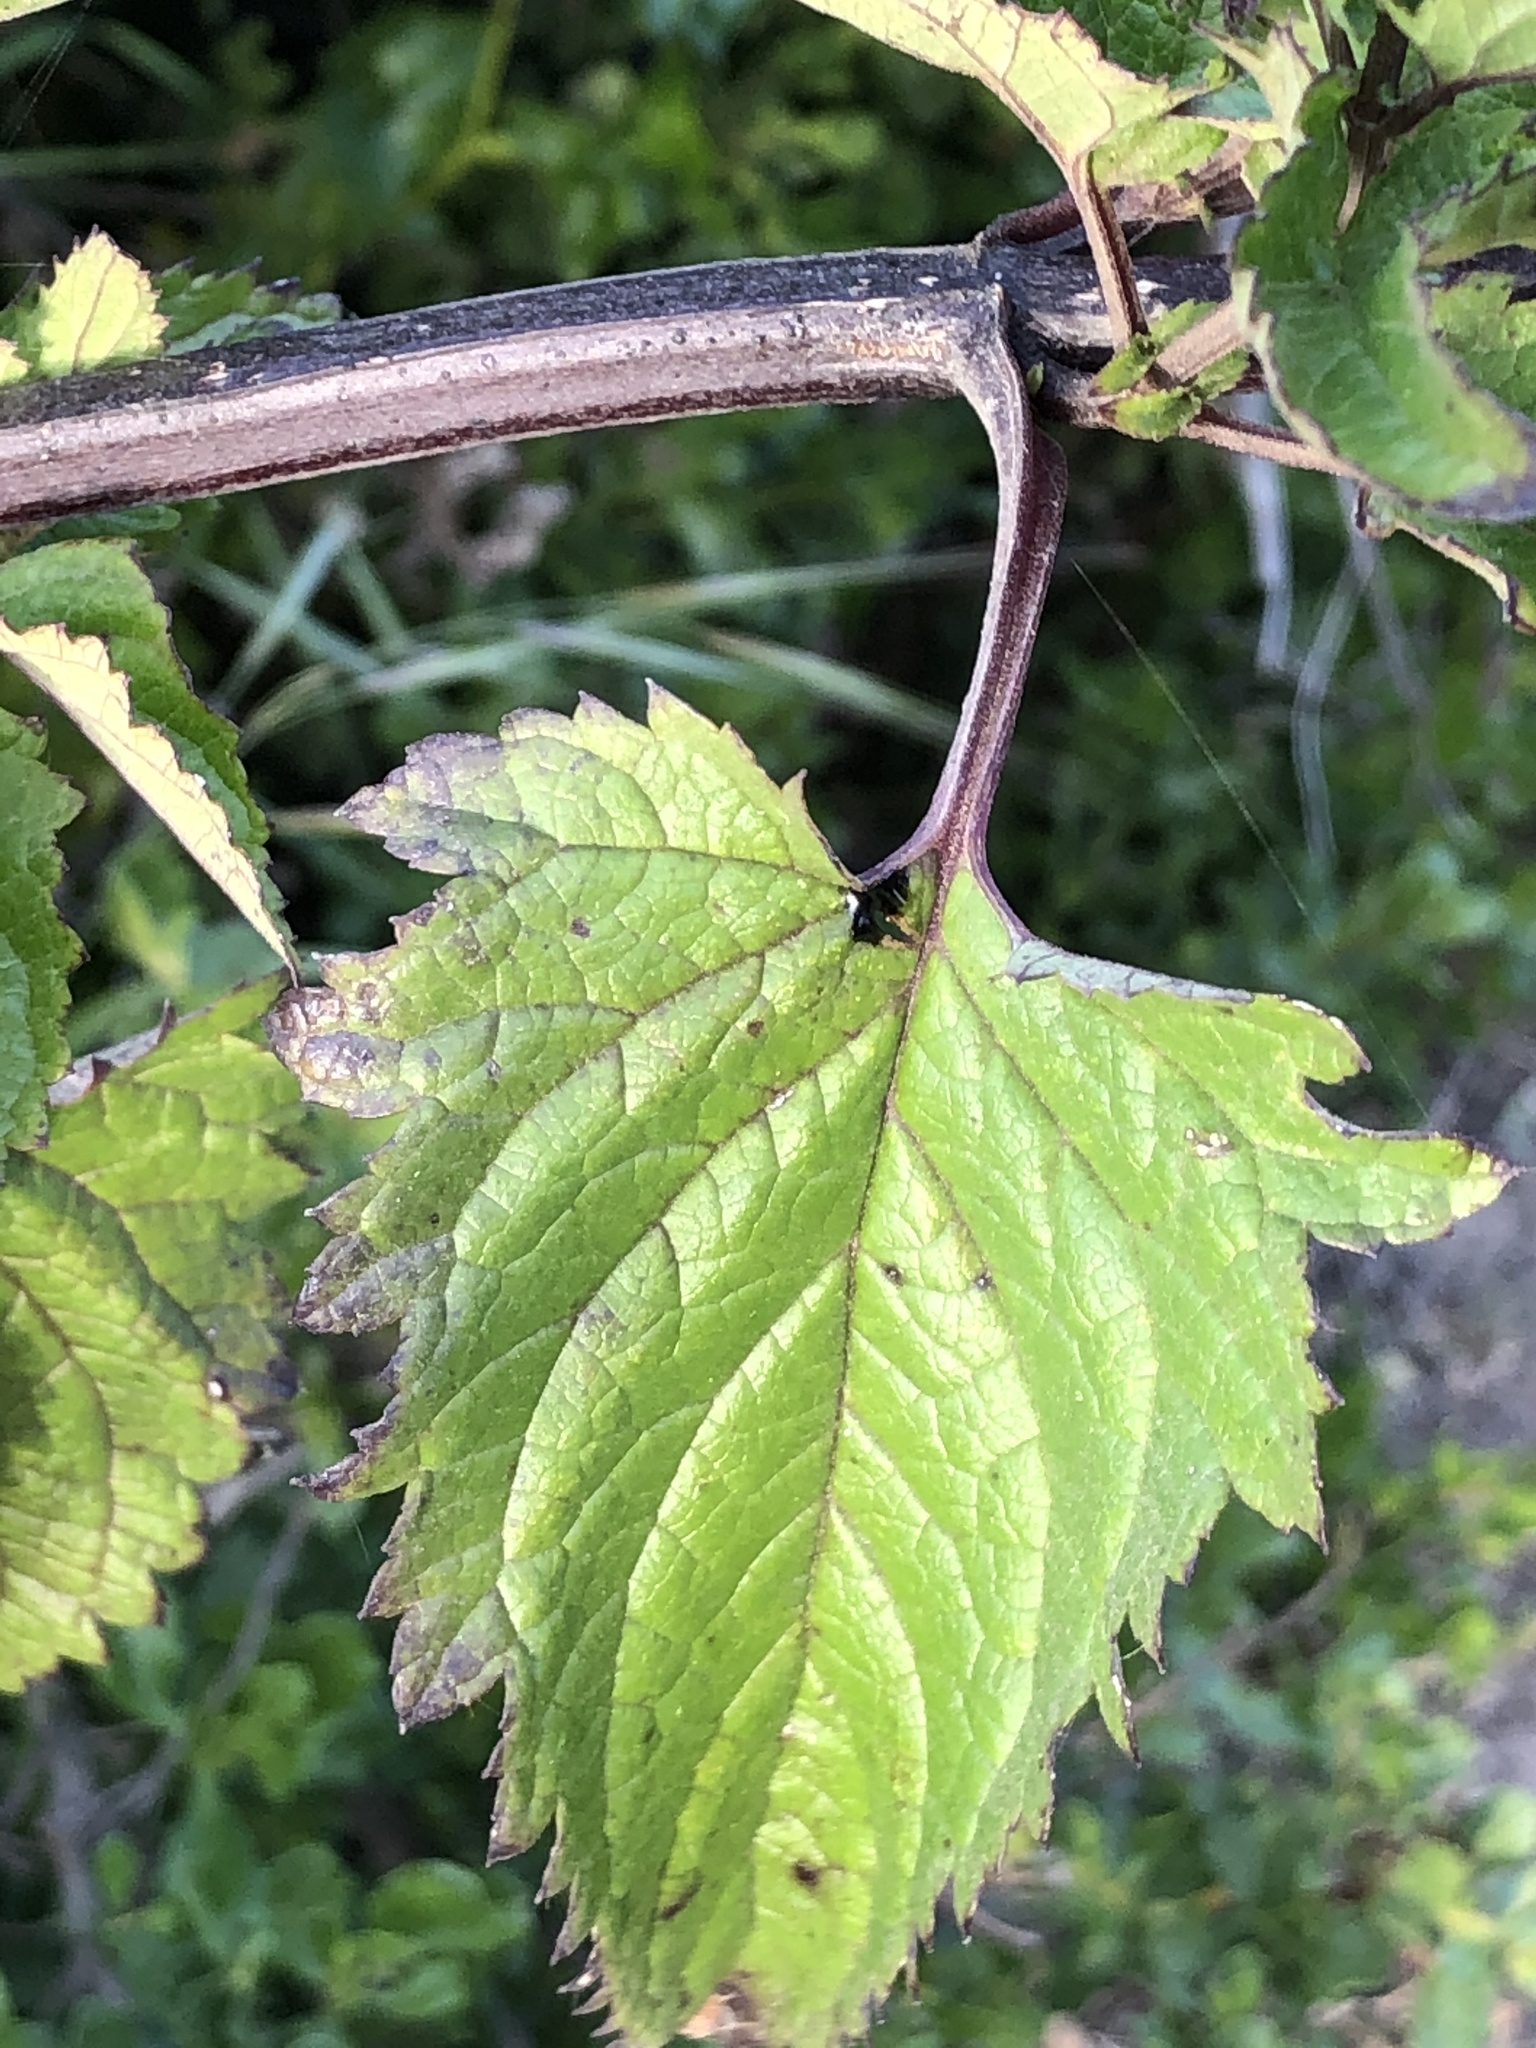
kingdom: Plantae
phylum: Tracheophyta
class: Magnoliopsida
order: Lamiales
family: Scrophulariaceae
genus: Scrophularia
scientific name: Scrophularia californica
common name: California figwort
